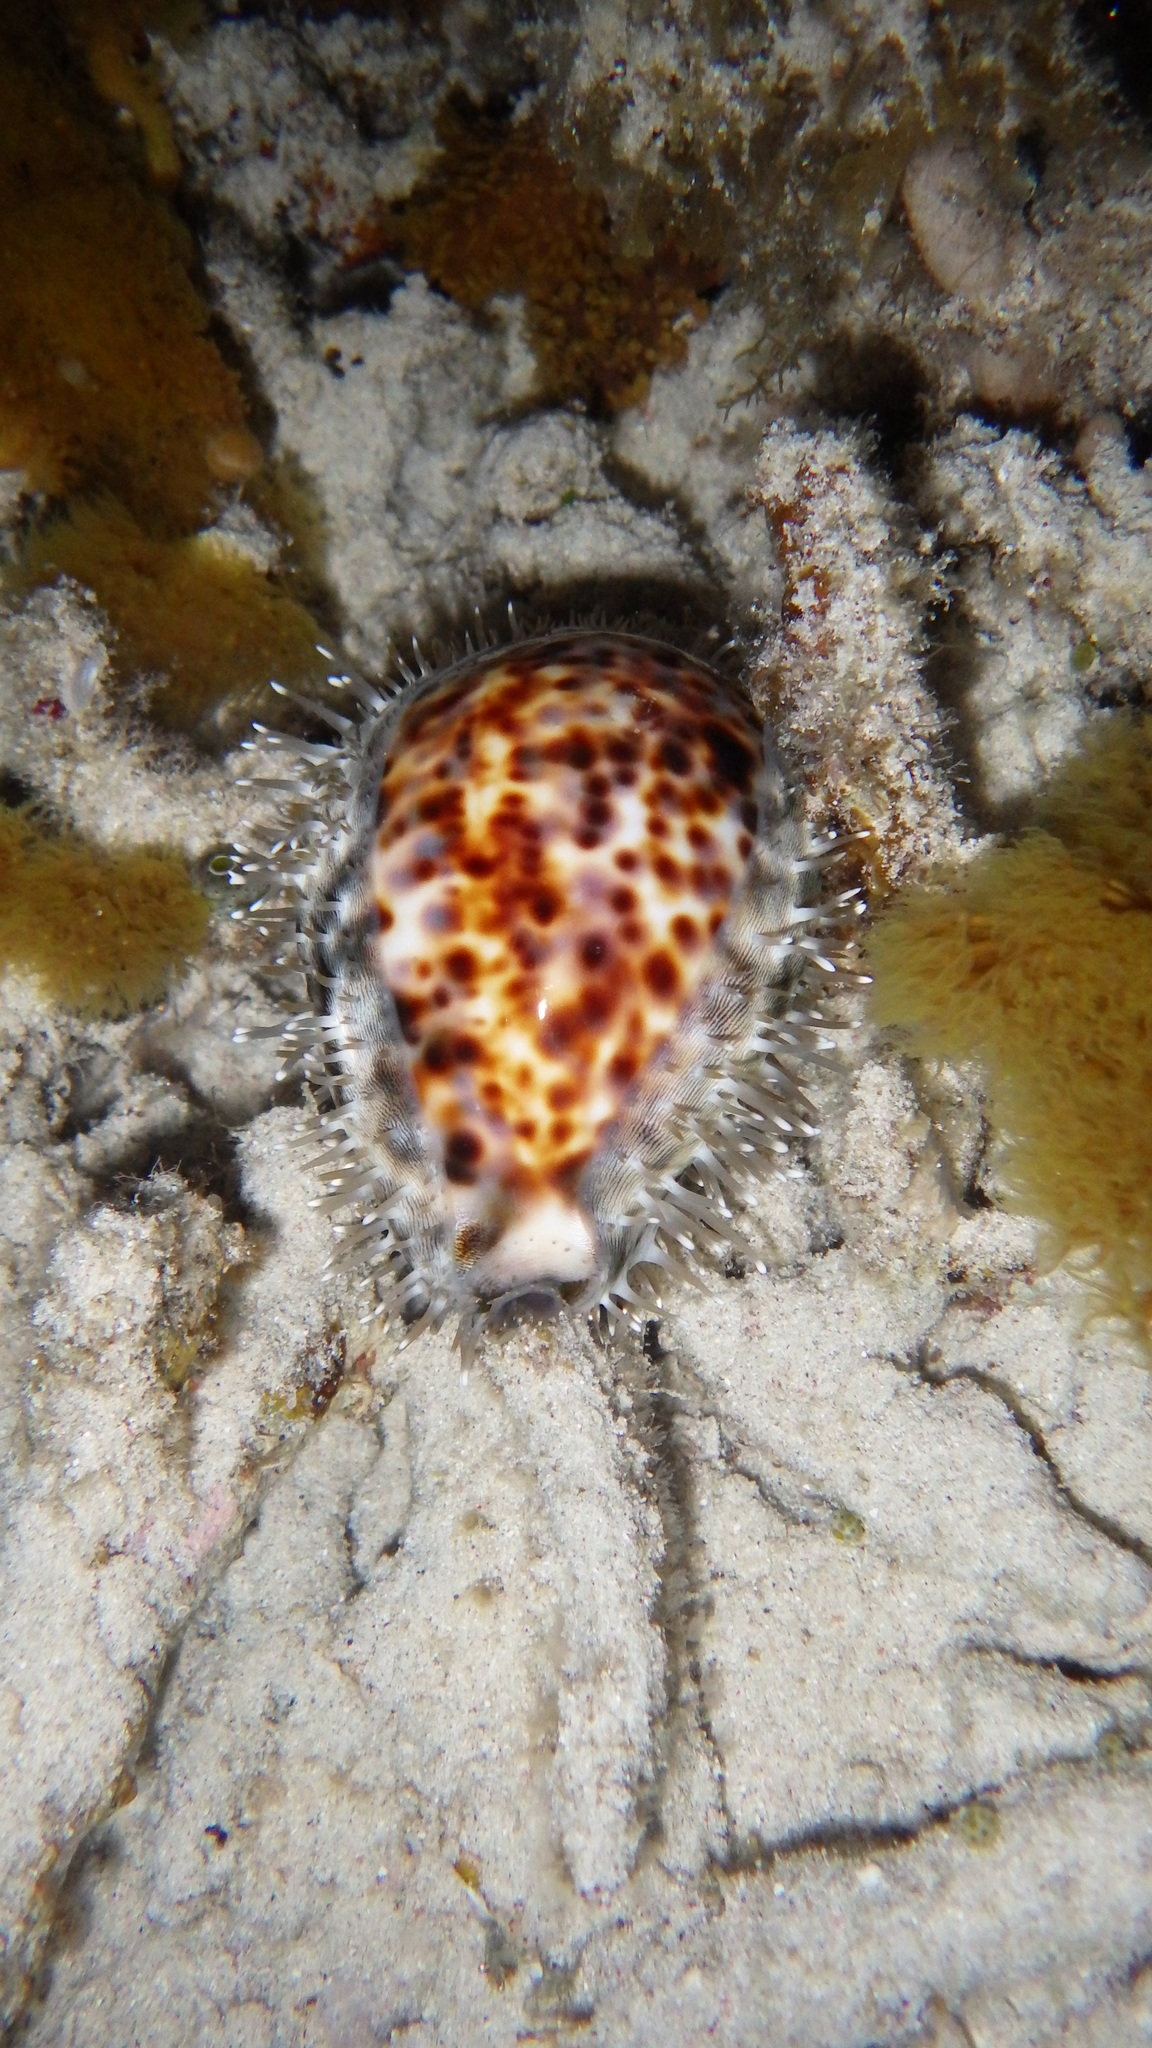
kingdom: Animalia
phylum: Mollusca
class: Gastropoda
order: Littorinimorpha
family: Cypraeidae
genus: Cypraea
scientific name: Cypraea tigris
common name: Tiger cowrie
